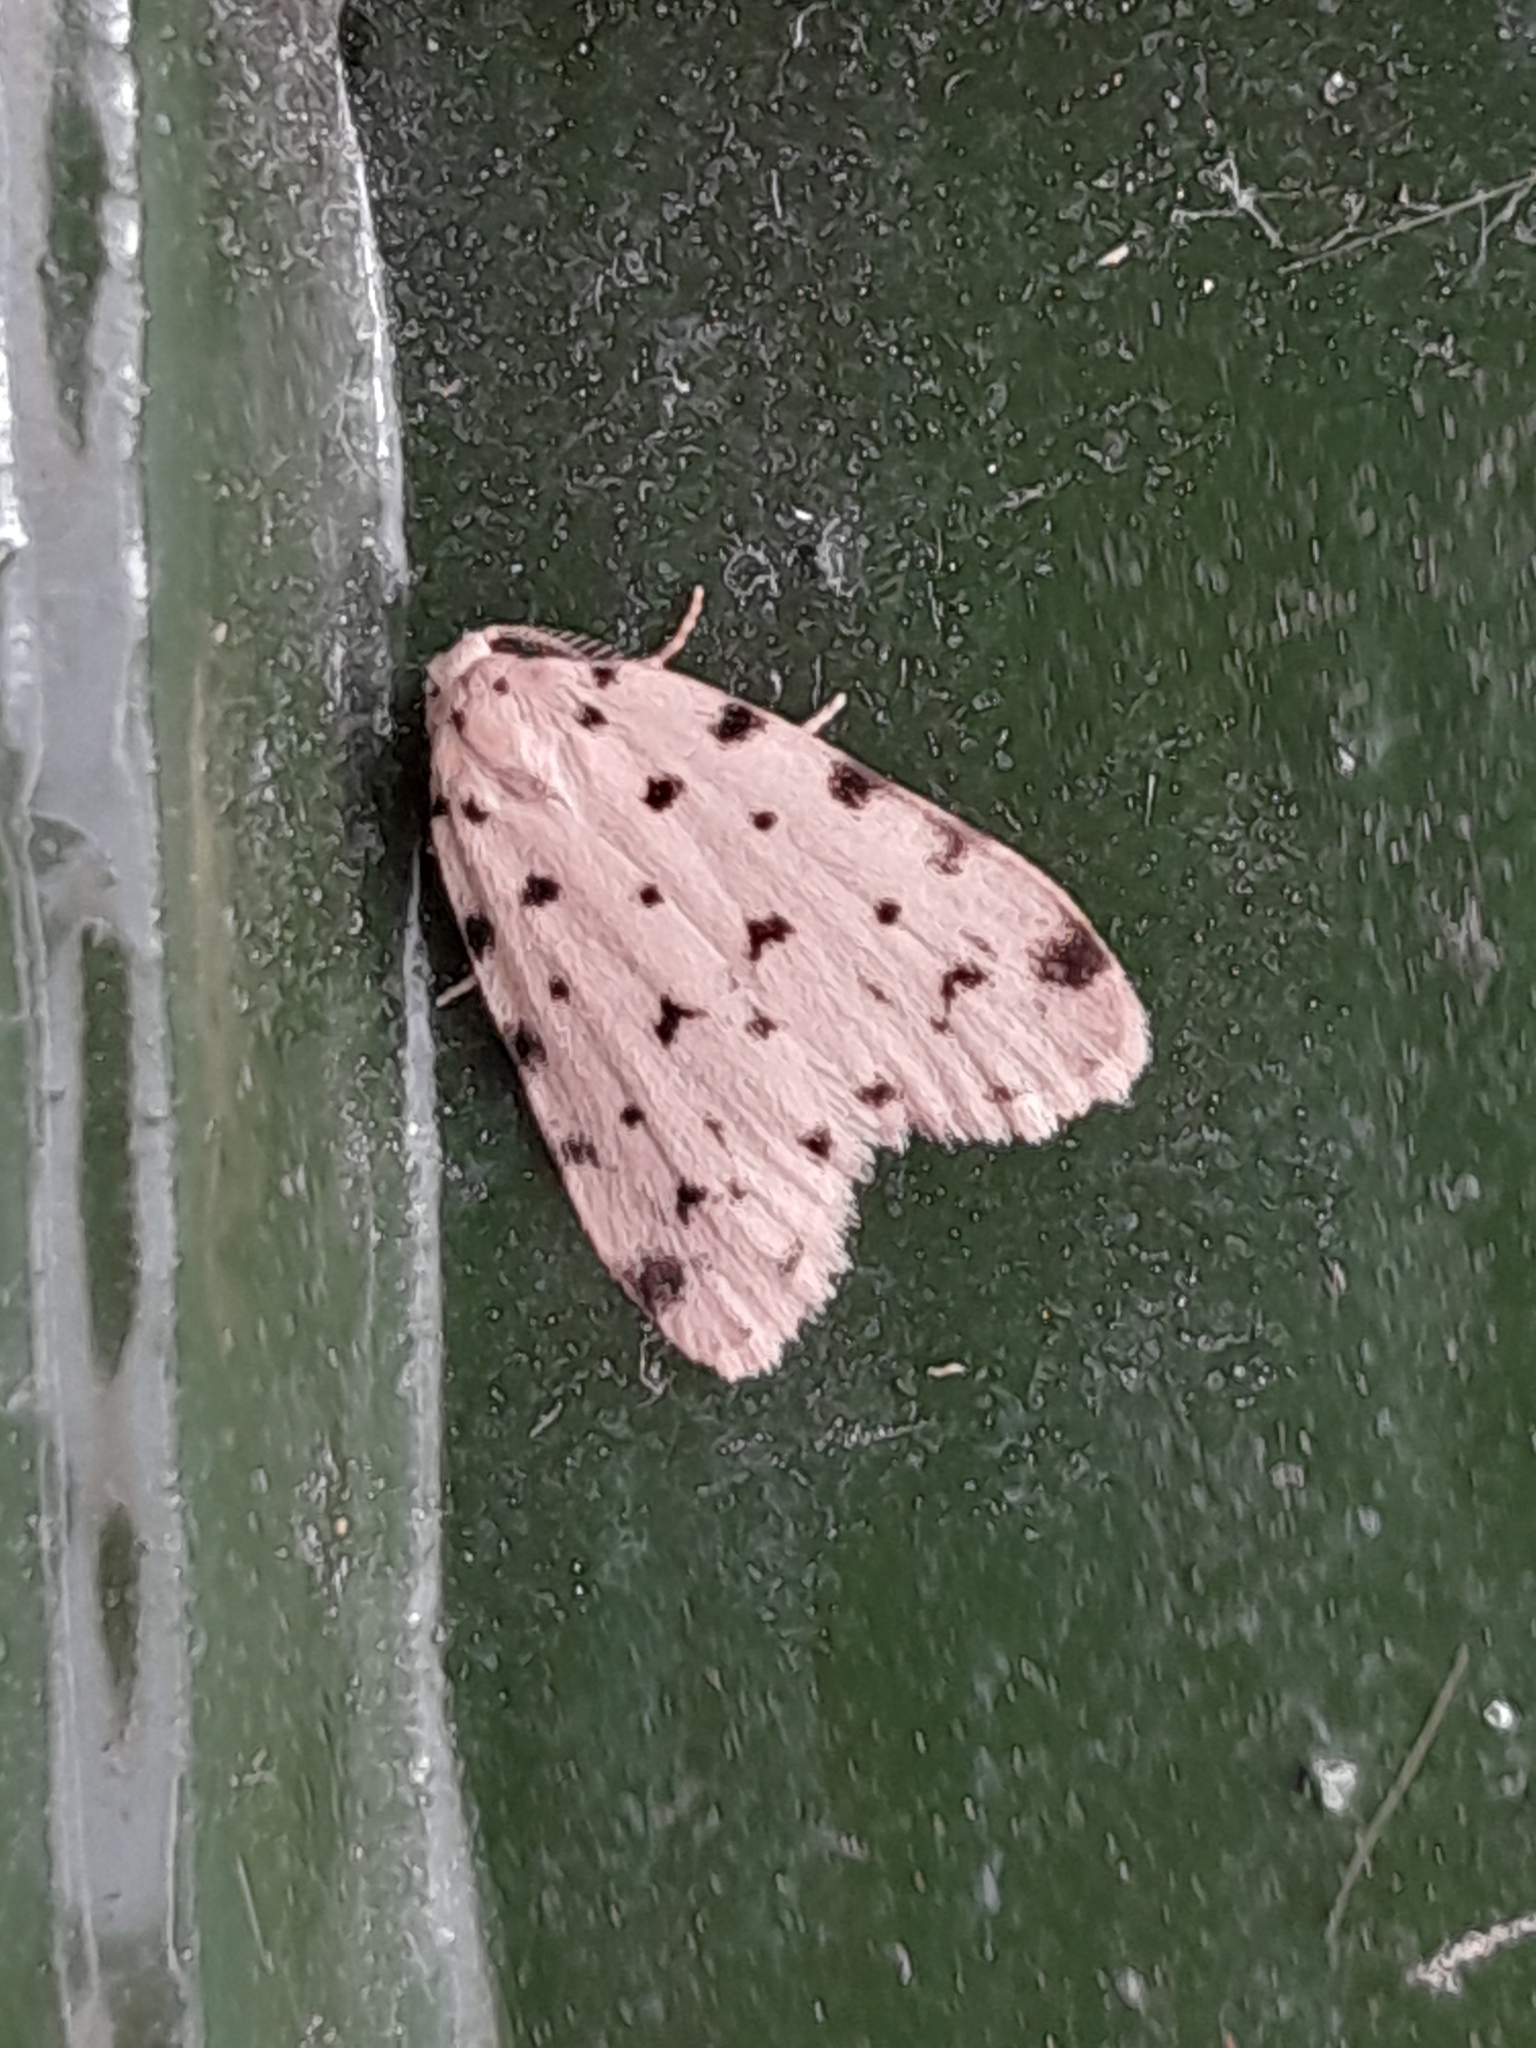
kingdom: Animalia
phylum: Arthropoda
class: Insecta
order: Lepidoptera
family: Erebidae
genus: Siccia
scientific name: Siccia caffra
